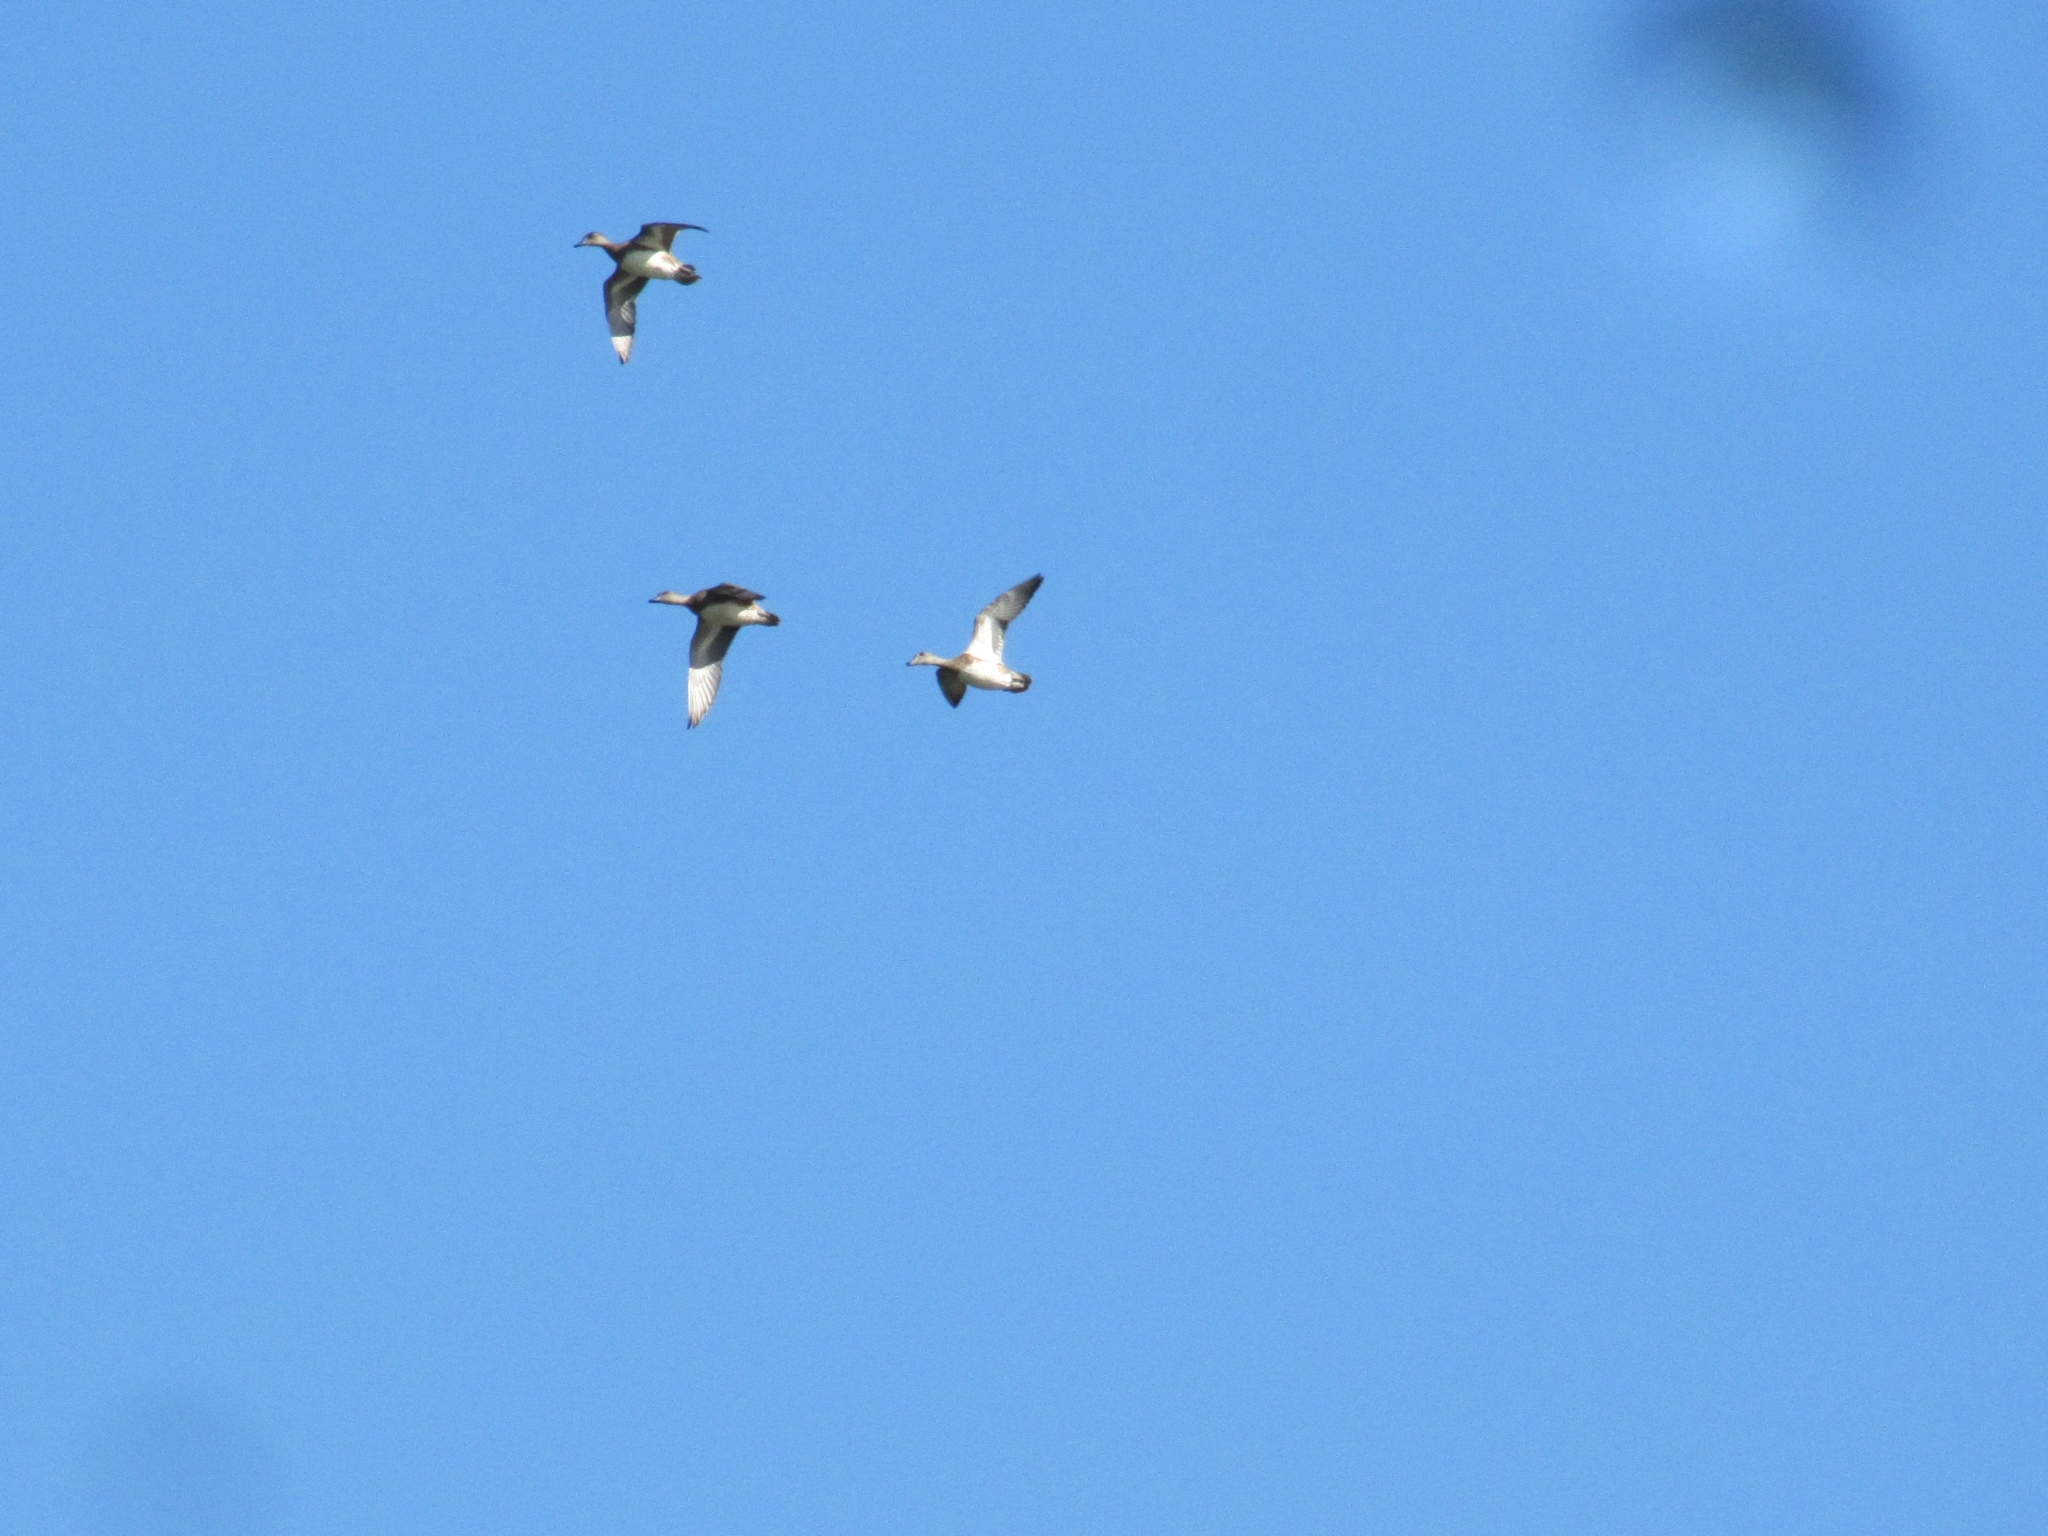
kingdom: Animalia
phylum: Chordata
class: Aves
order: Anseriformes
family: Anatidae
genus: Mareca
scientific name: Mareca americana
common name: American wigeon
